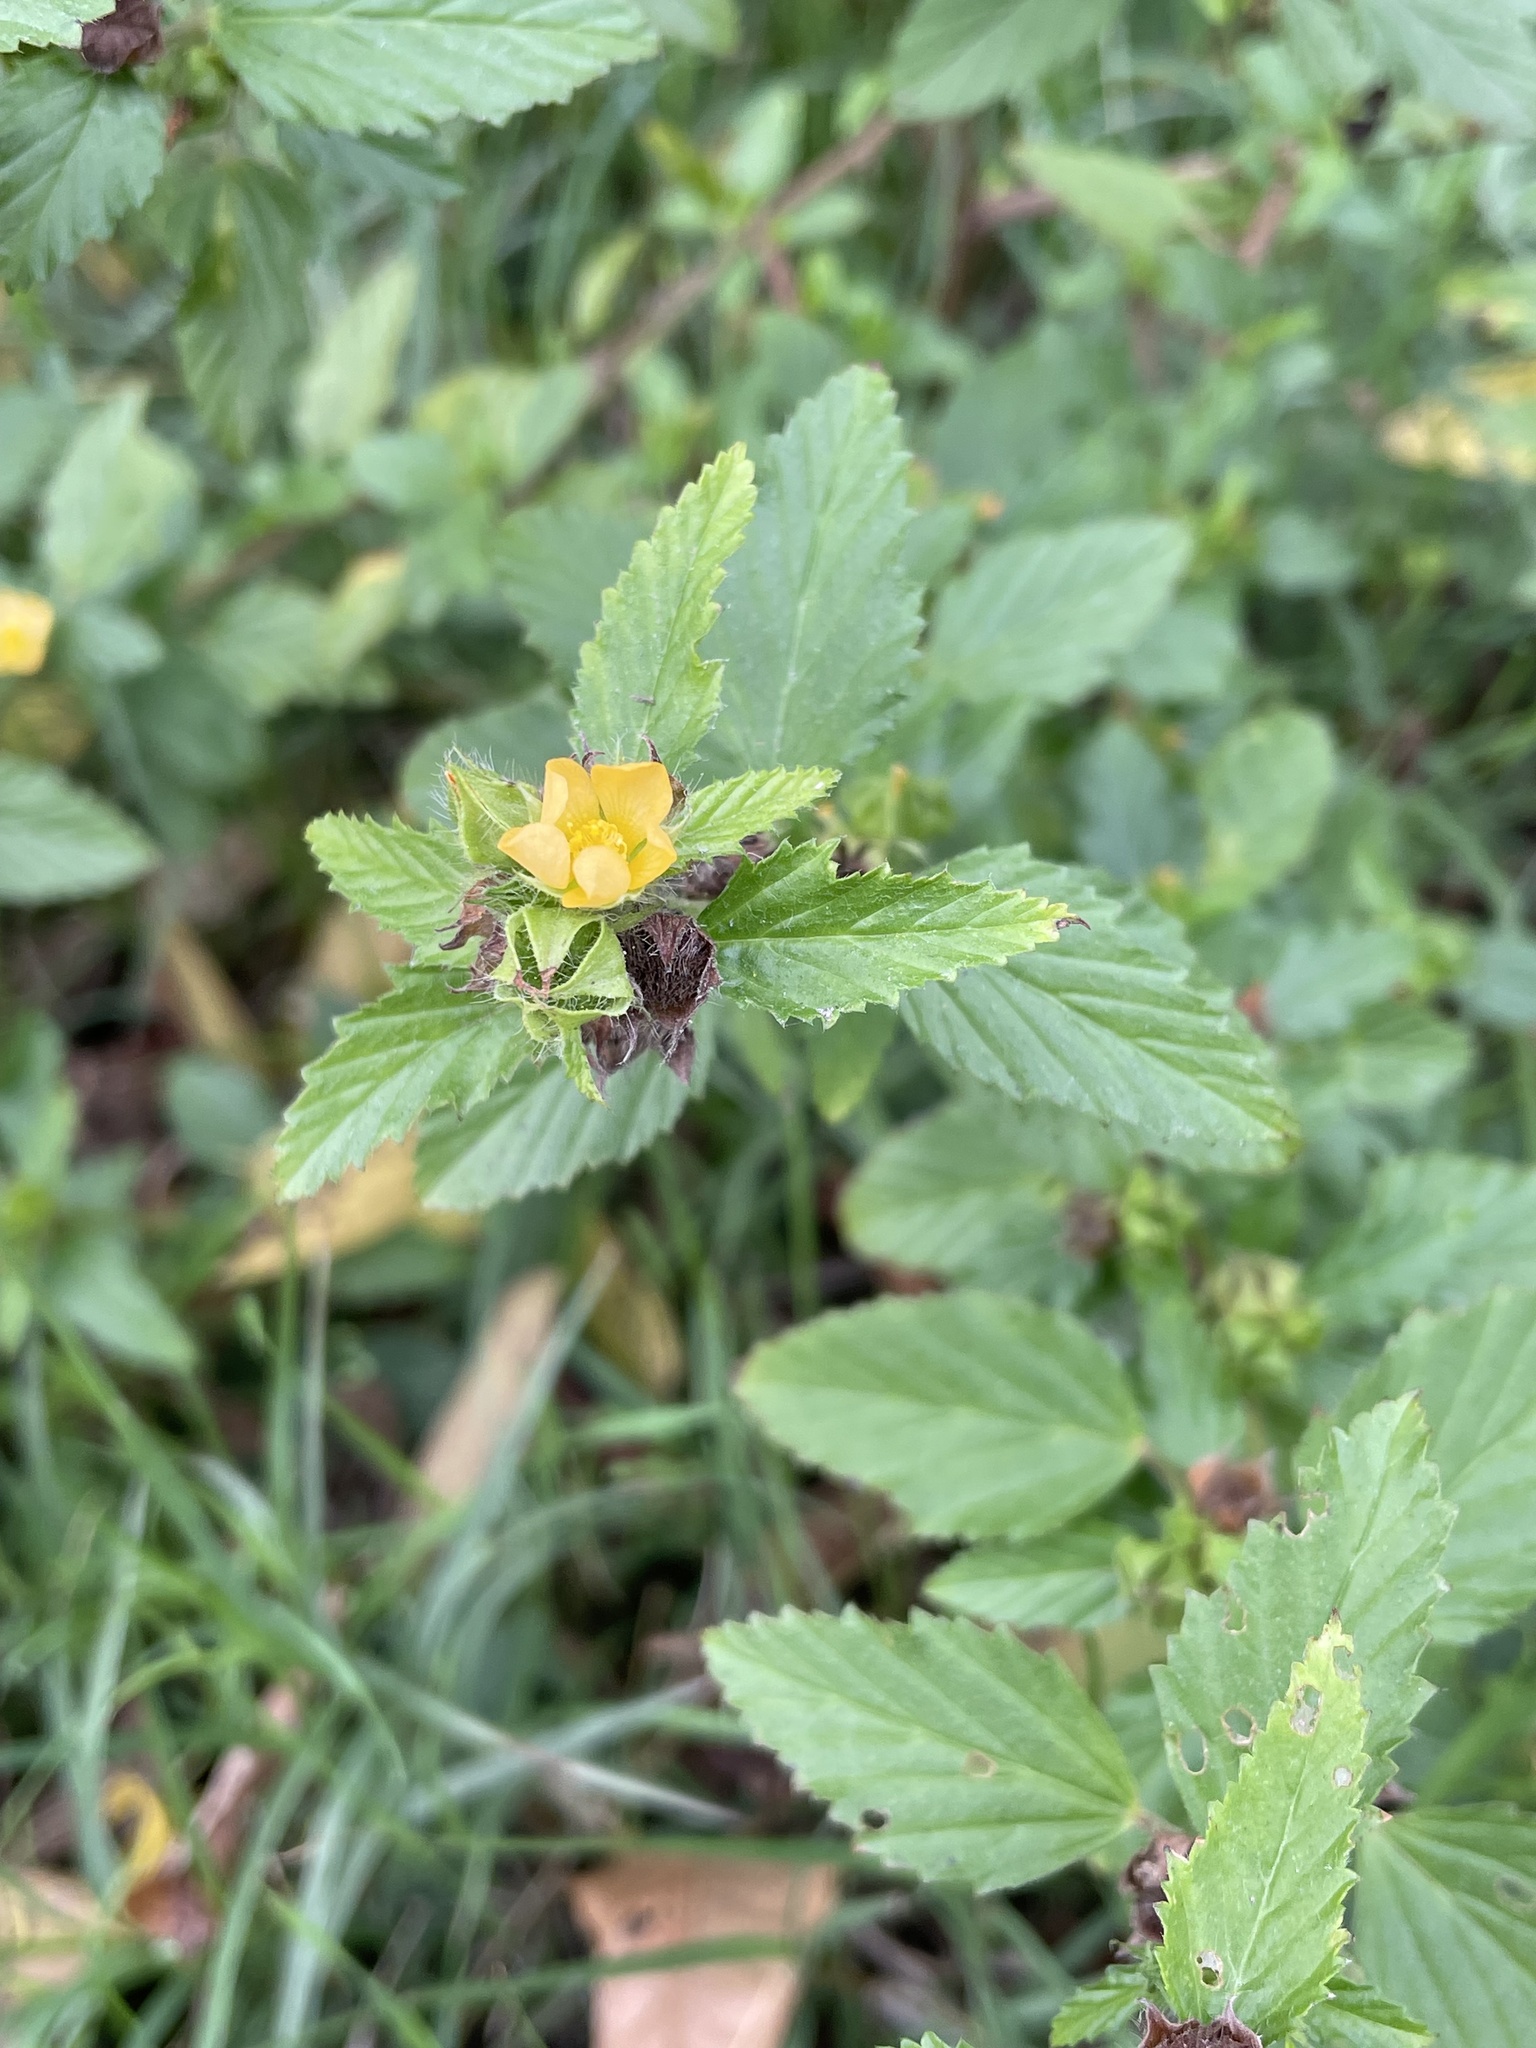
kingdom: Plantae
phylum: Tracheophyta
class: Magnoliopsida
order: Malvales
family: Malvaceae
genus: Malvastrum
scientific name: Malvastrum coromandelianum
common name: Threelobe false mallow
